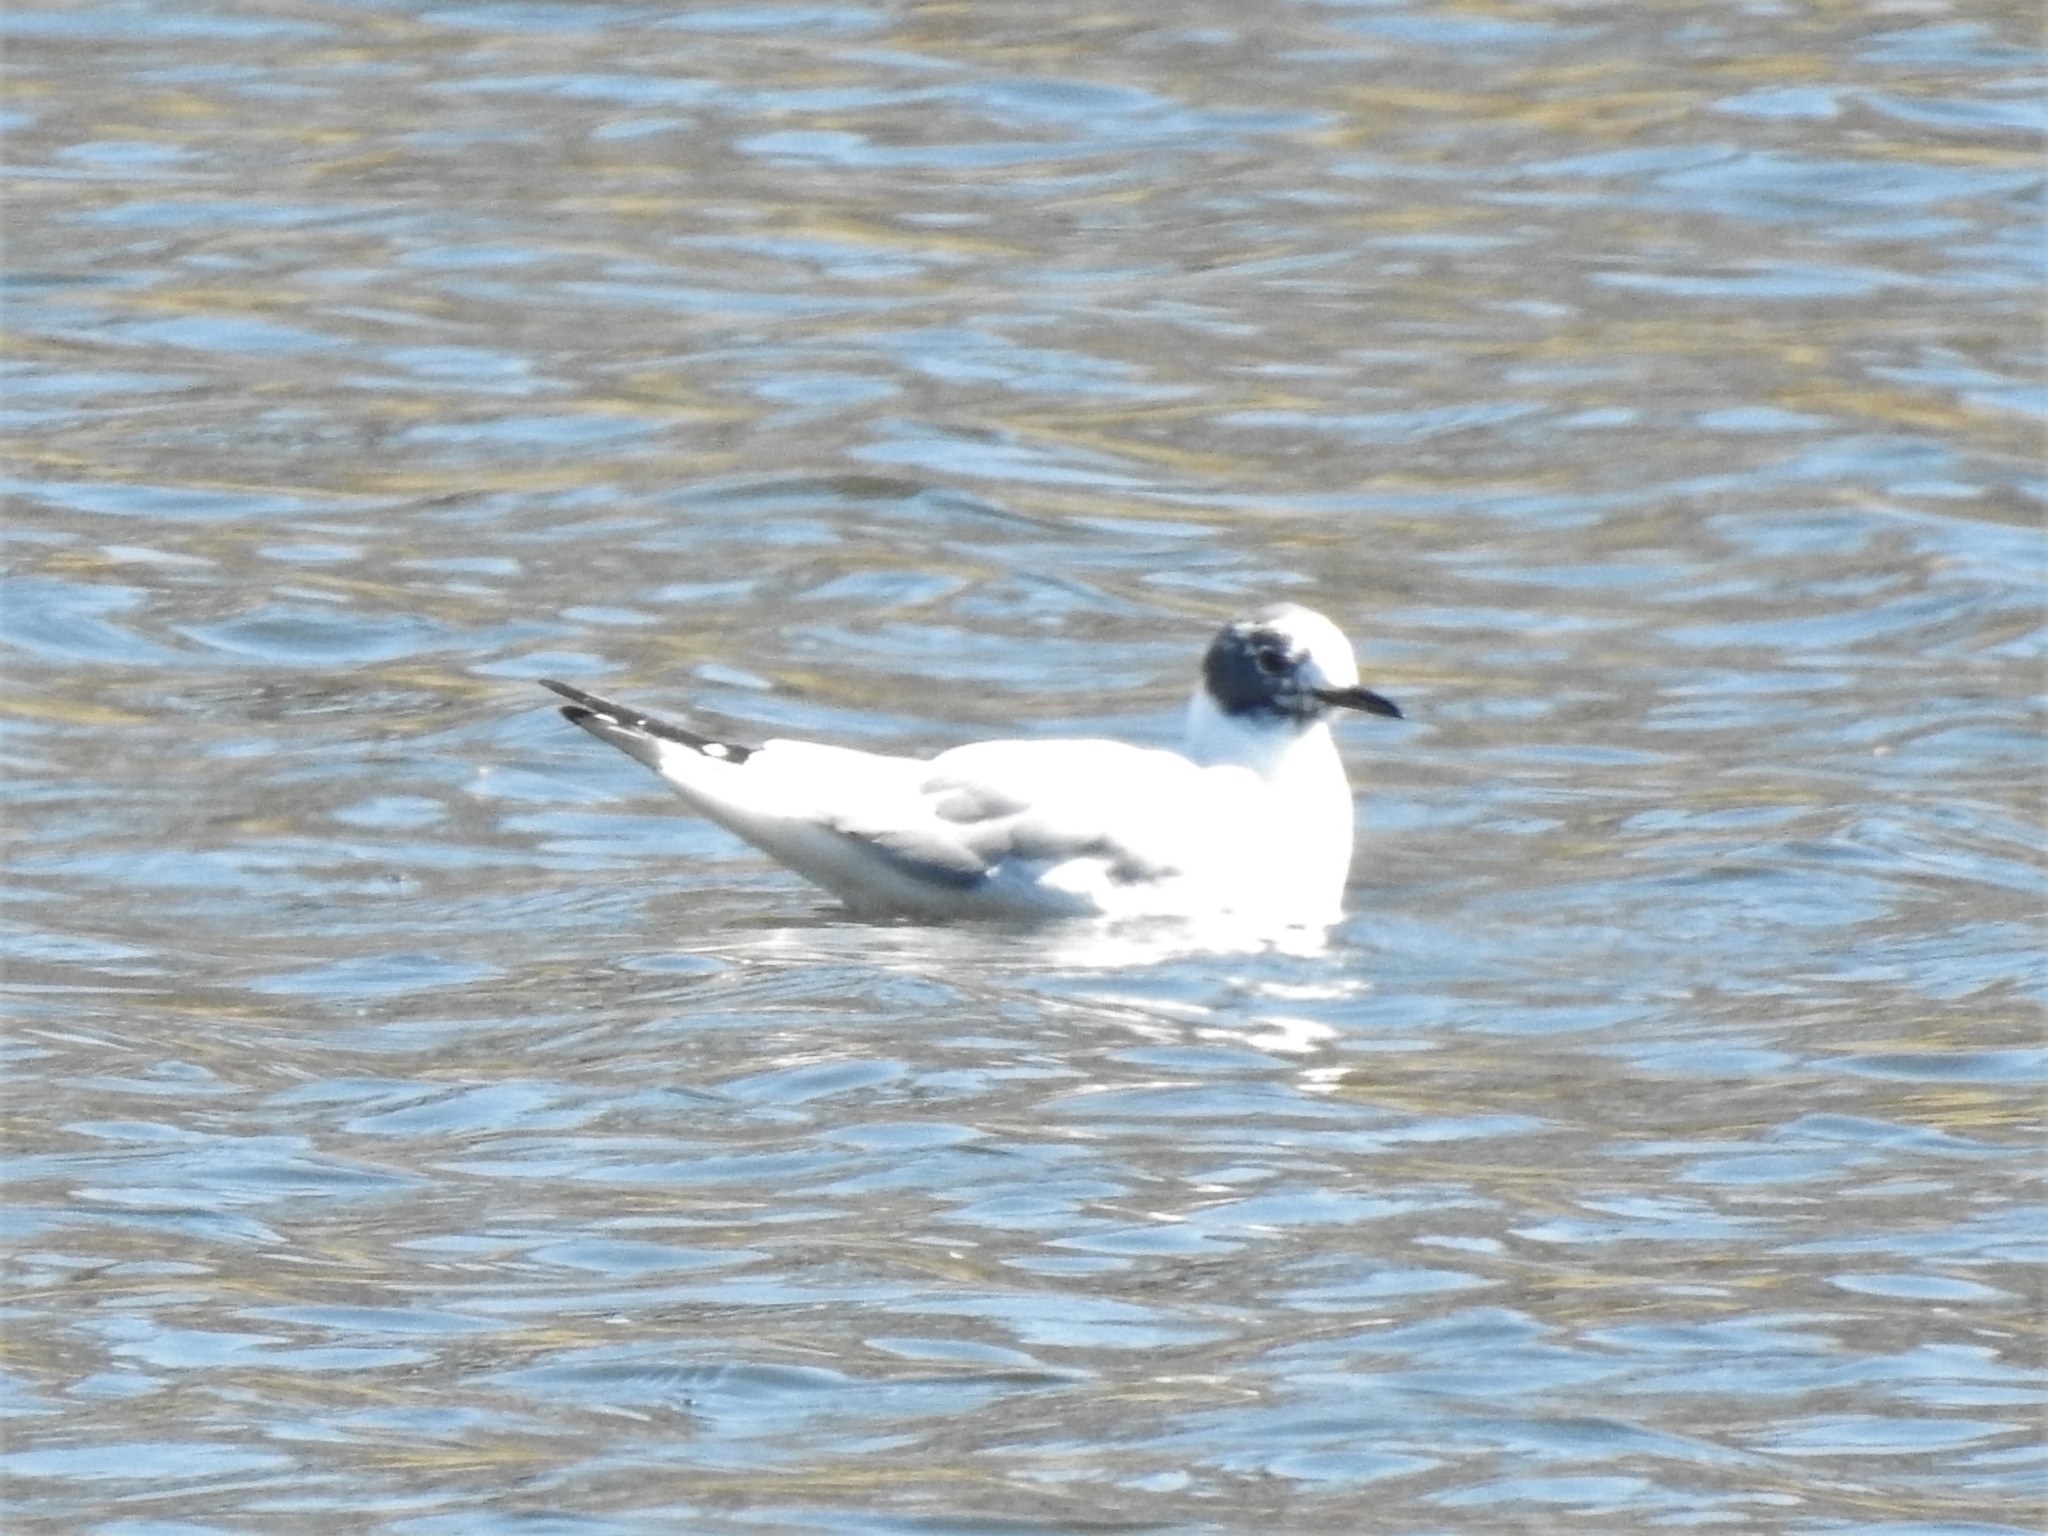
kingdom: Animalia
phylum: Chordata
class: Aves
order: Charadriiformes
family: Laridae
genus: Chroicocephalus
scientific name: Chroicocephalus philadelphia
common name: Bonaparte's gull
